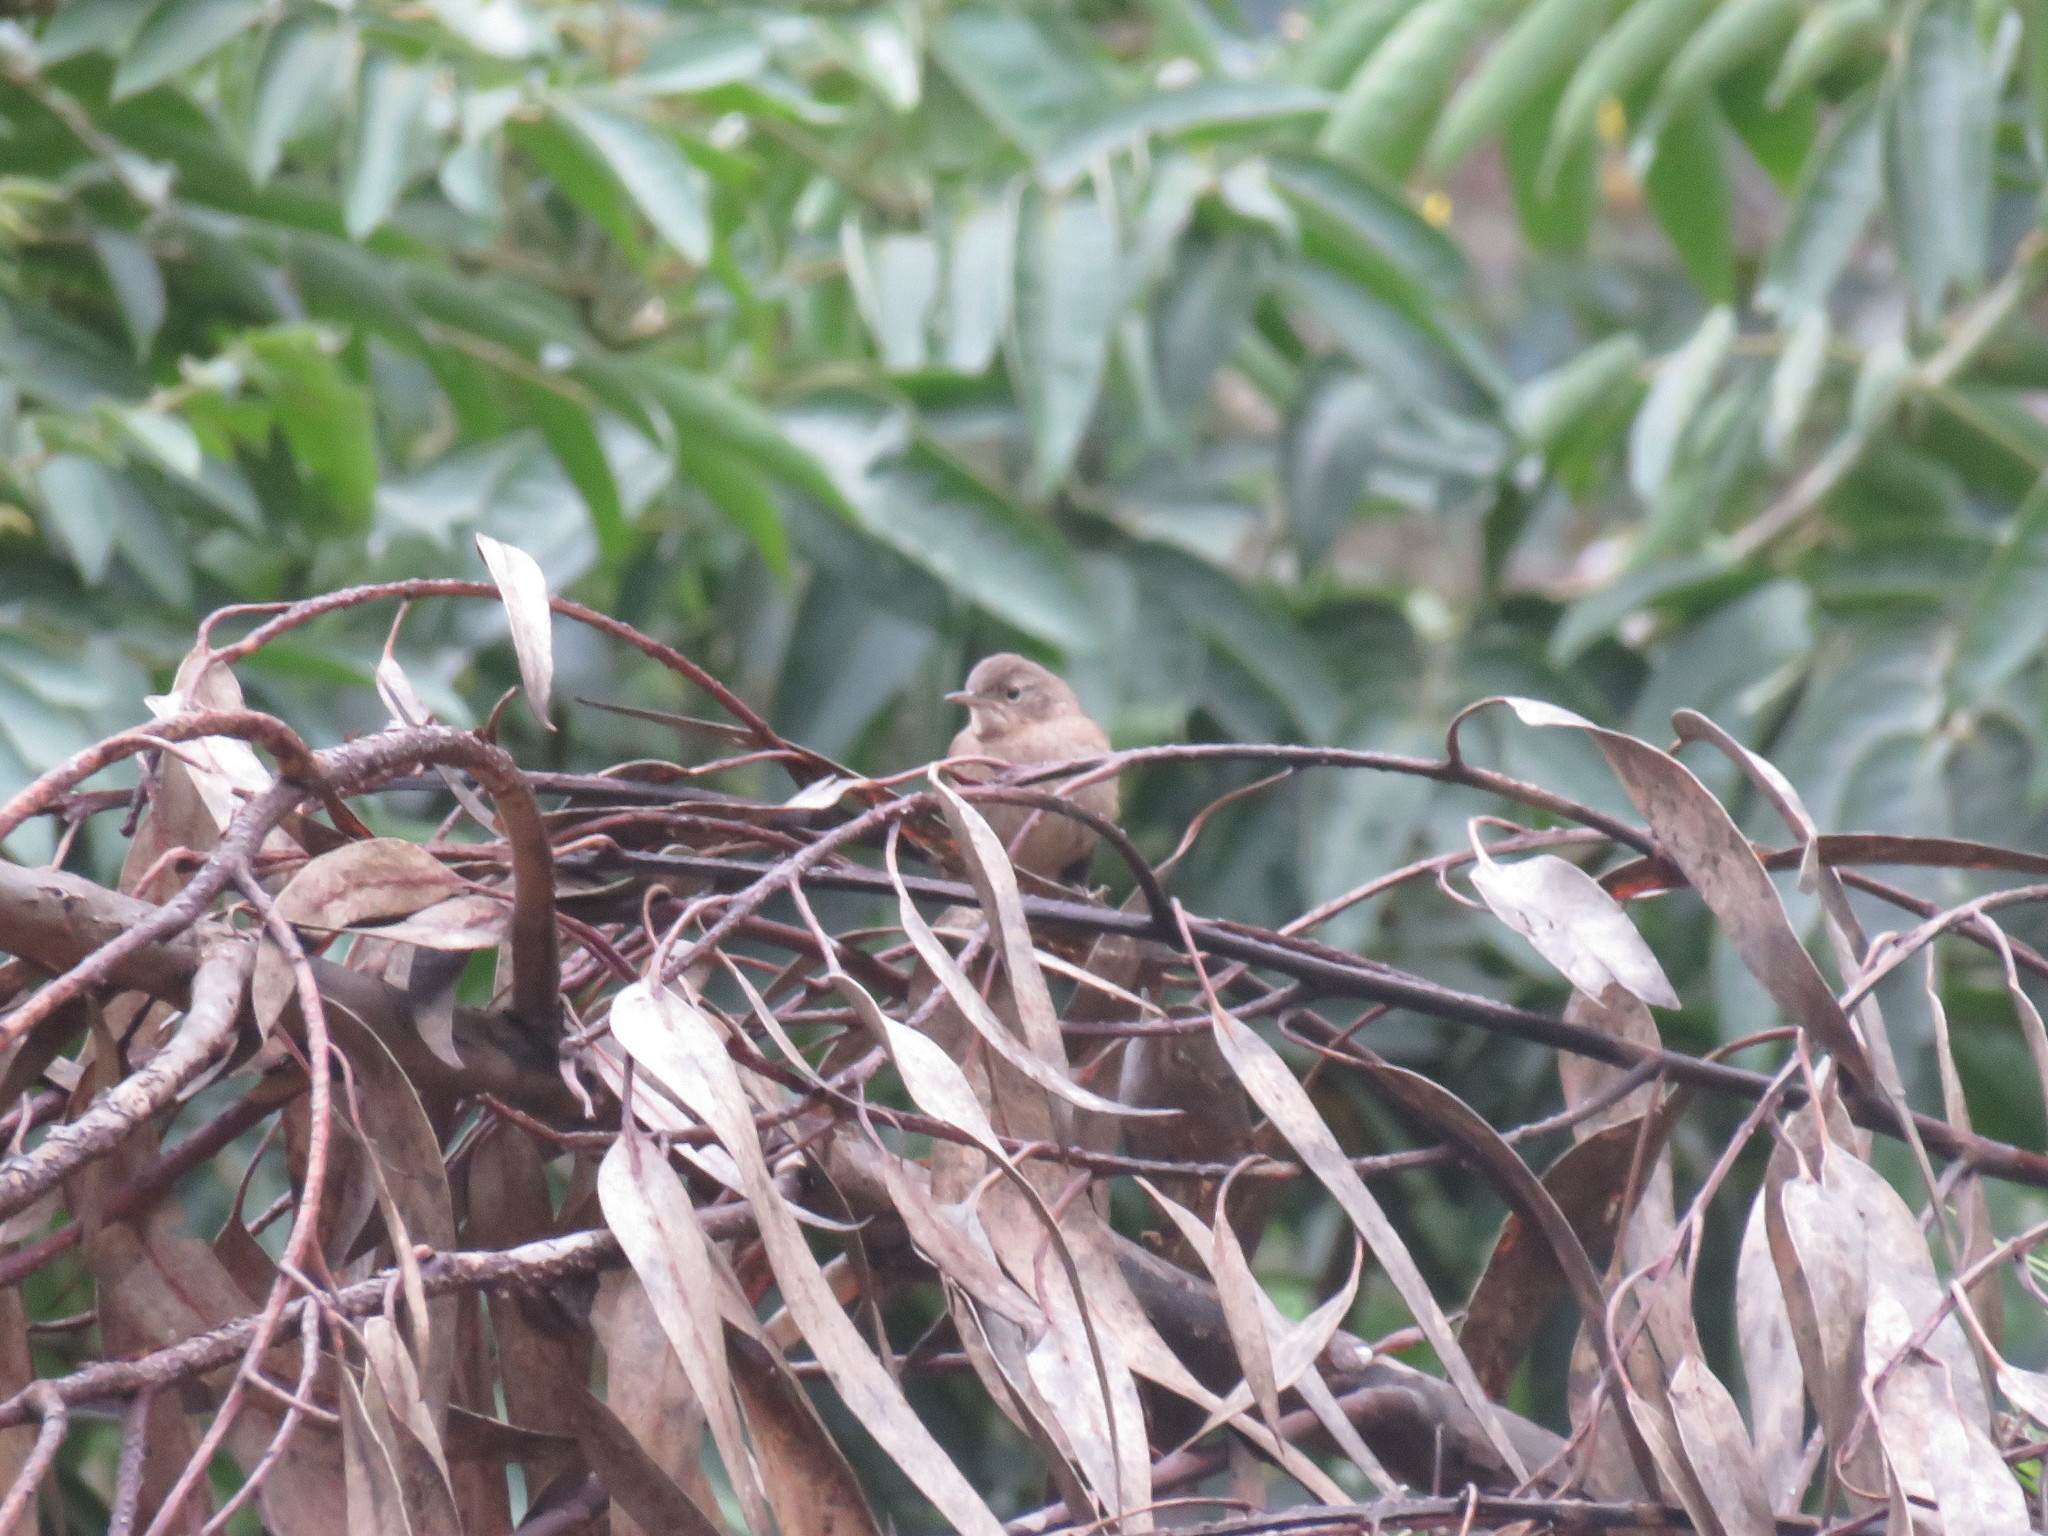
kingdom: Animalia
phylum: Chordata
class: Aves
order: Passeriformes
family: Troglodytidae
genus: Troglodytes
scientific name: Troglodytes aedon
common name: House wren
